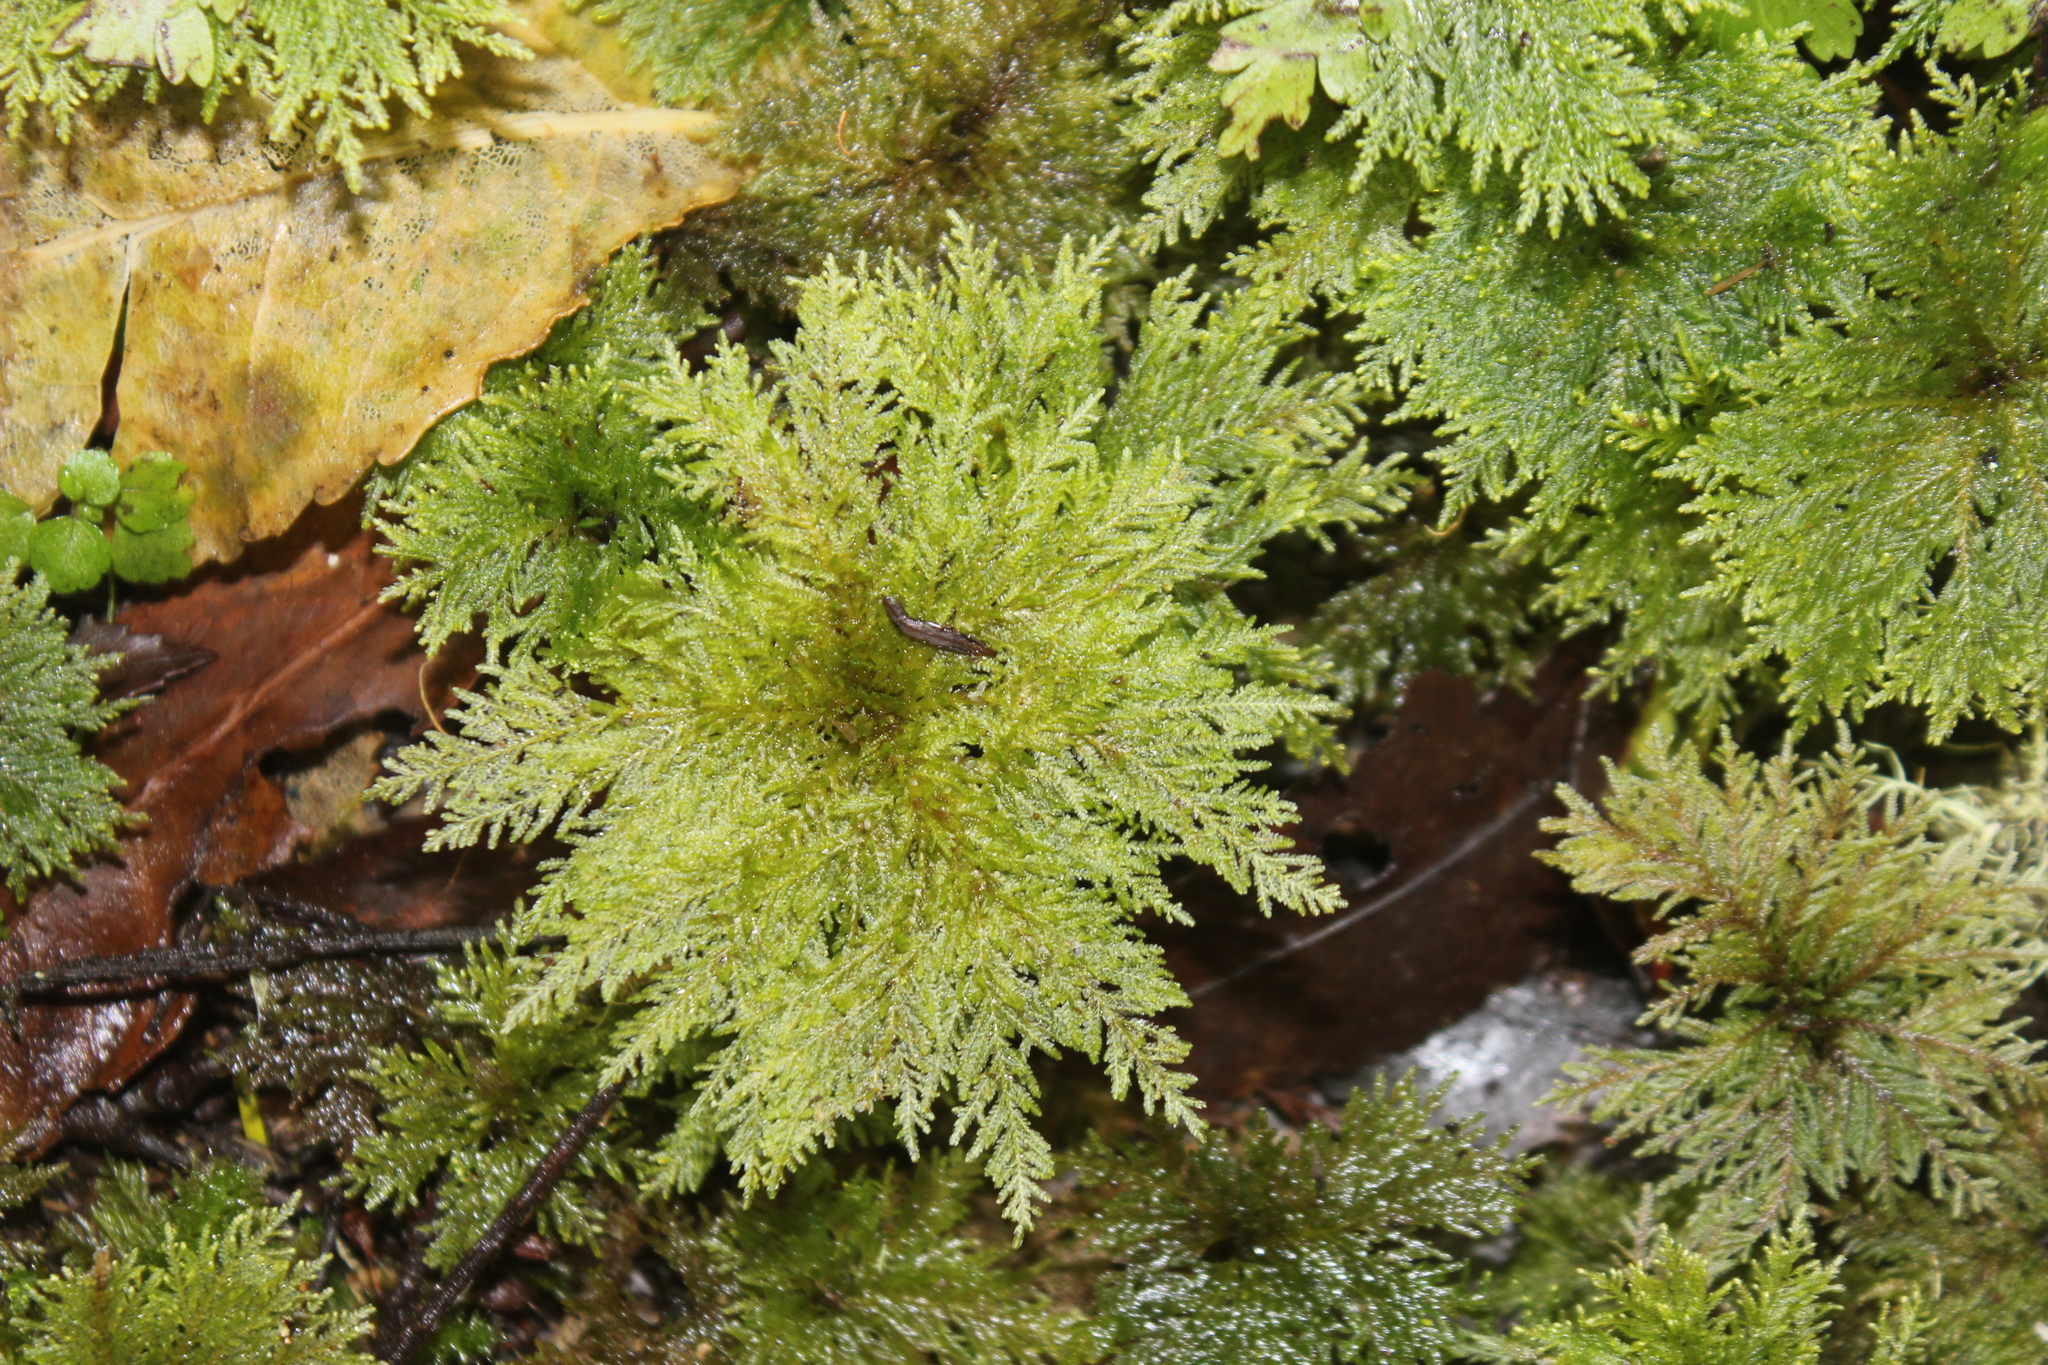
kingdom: Plantae
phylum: Bryophyta
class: Bryopsida
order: Hypopterygiales
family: Hypopterygiaceae
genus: Dendrohypopterygium
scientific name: Dendrohypopterygium filiculiforme
